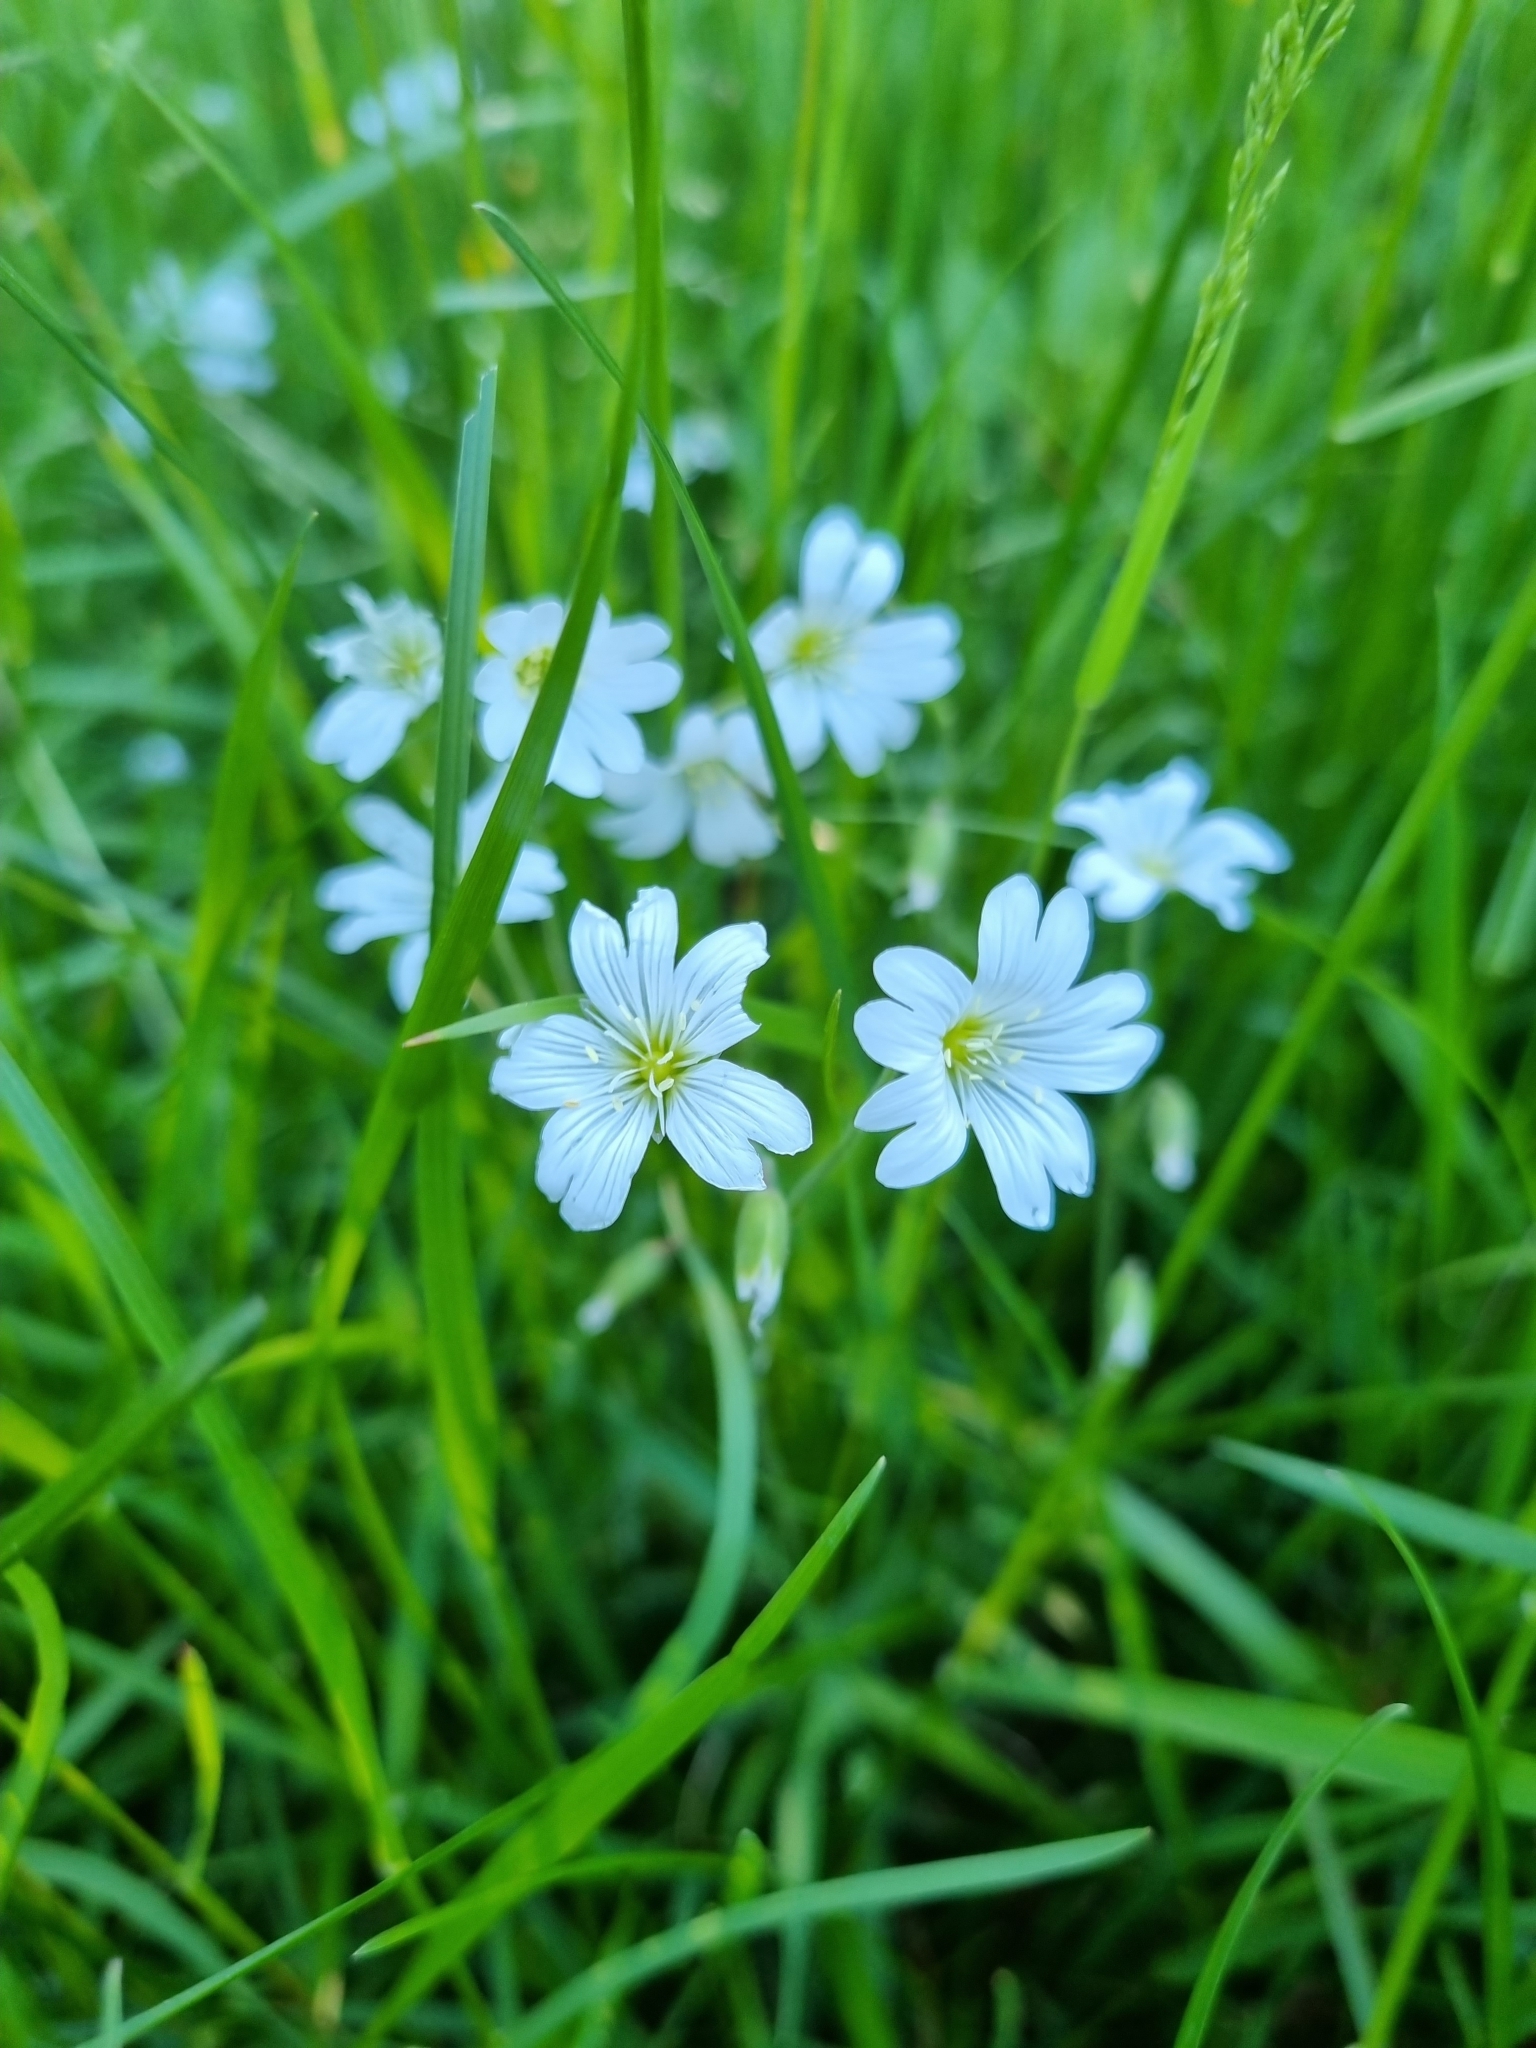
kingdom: Plantae
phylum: Tracheophyta
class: Magnoliopsida
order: Caryophyllales
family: Caryophyllaceae
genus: Rabelera
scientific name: Rabelera holostea
